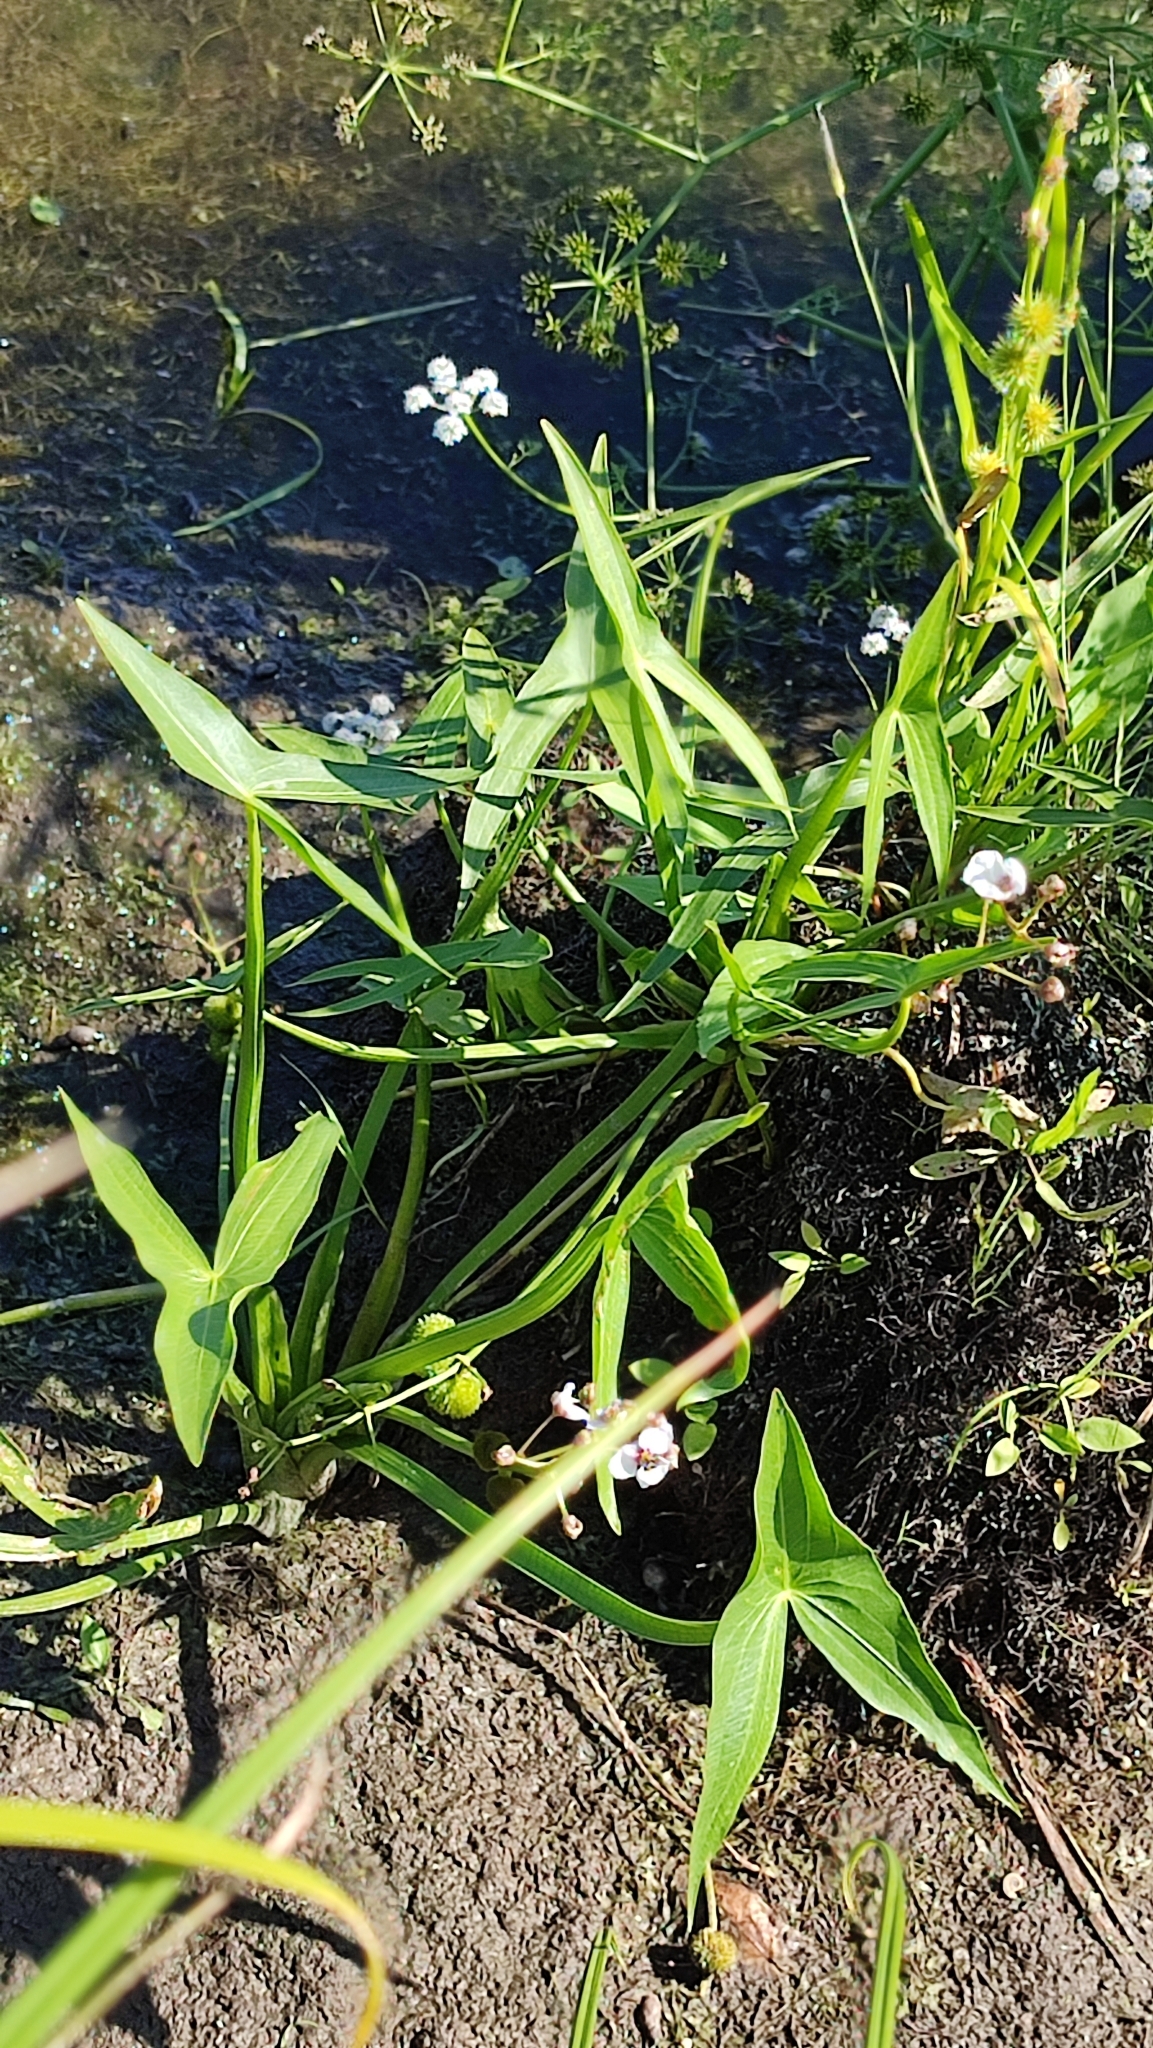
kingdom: Plantae
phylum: Tracheophyta
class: Liliopsida
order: Alismatales
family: Alismataceae
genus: Sagittaria
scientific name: Sagittaria sagittifolia
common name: Arrowhead
